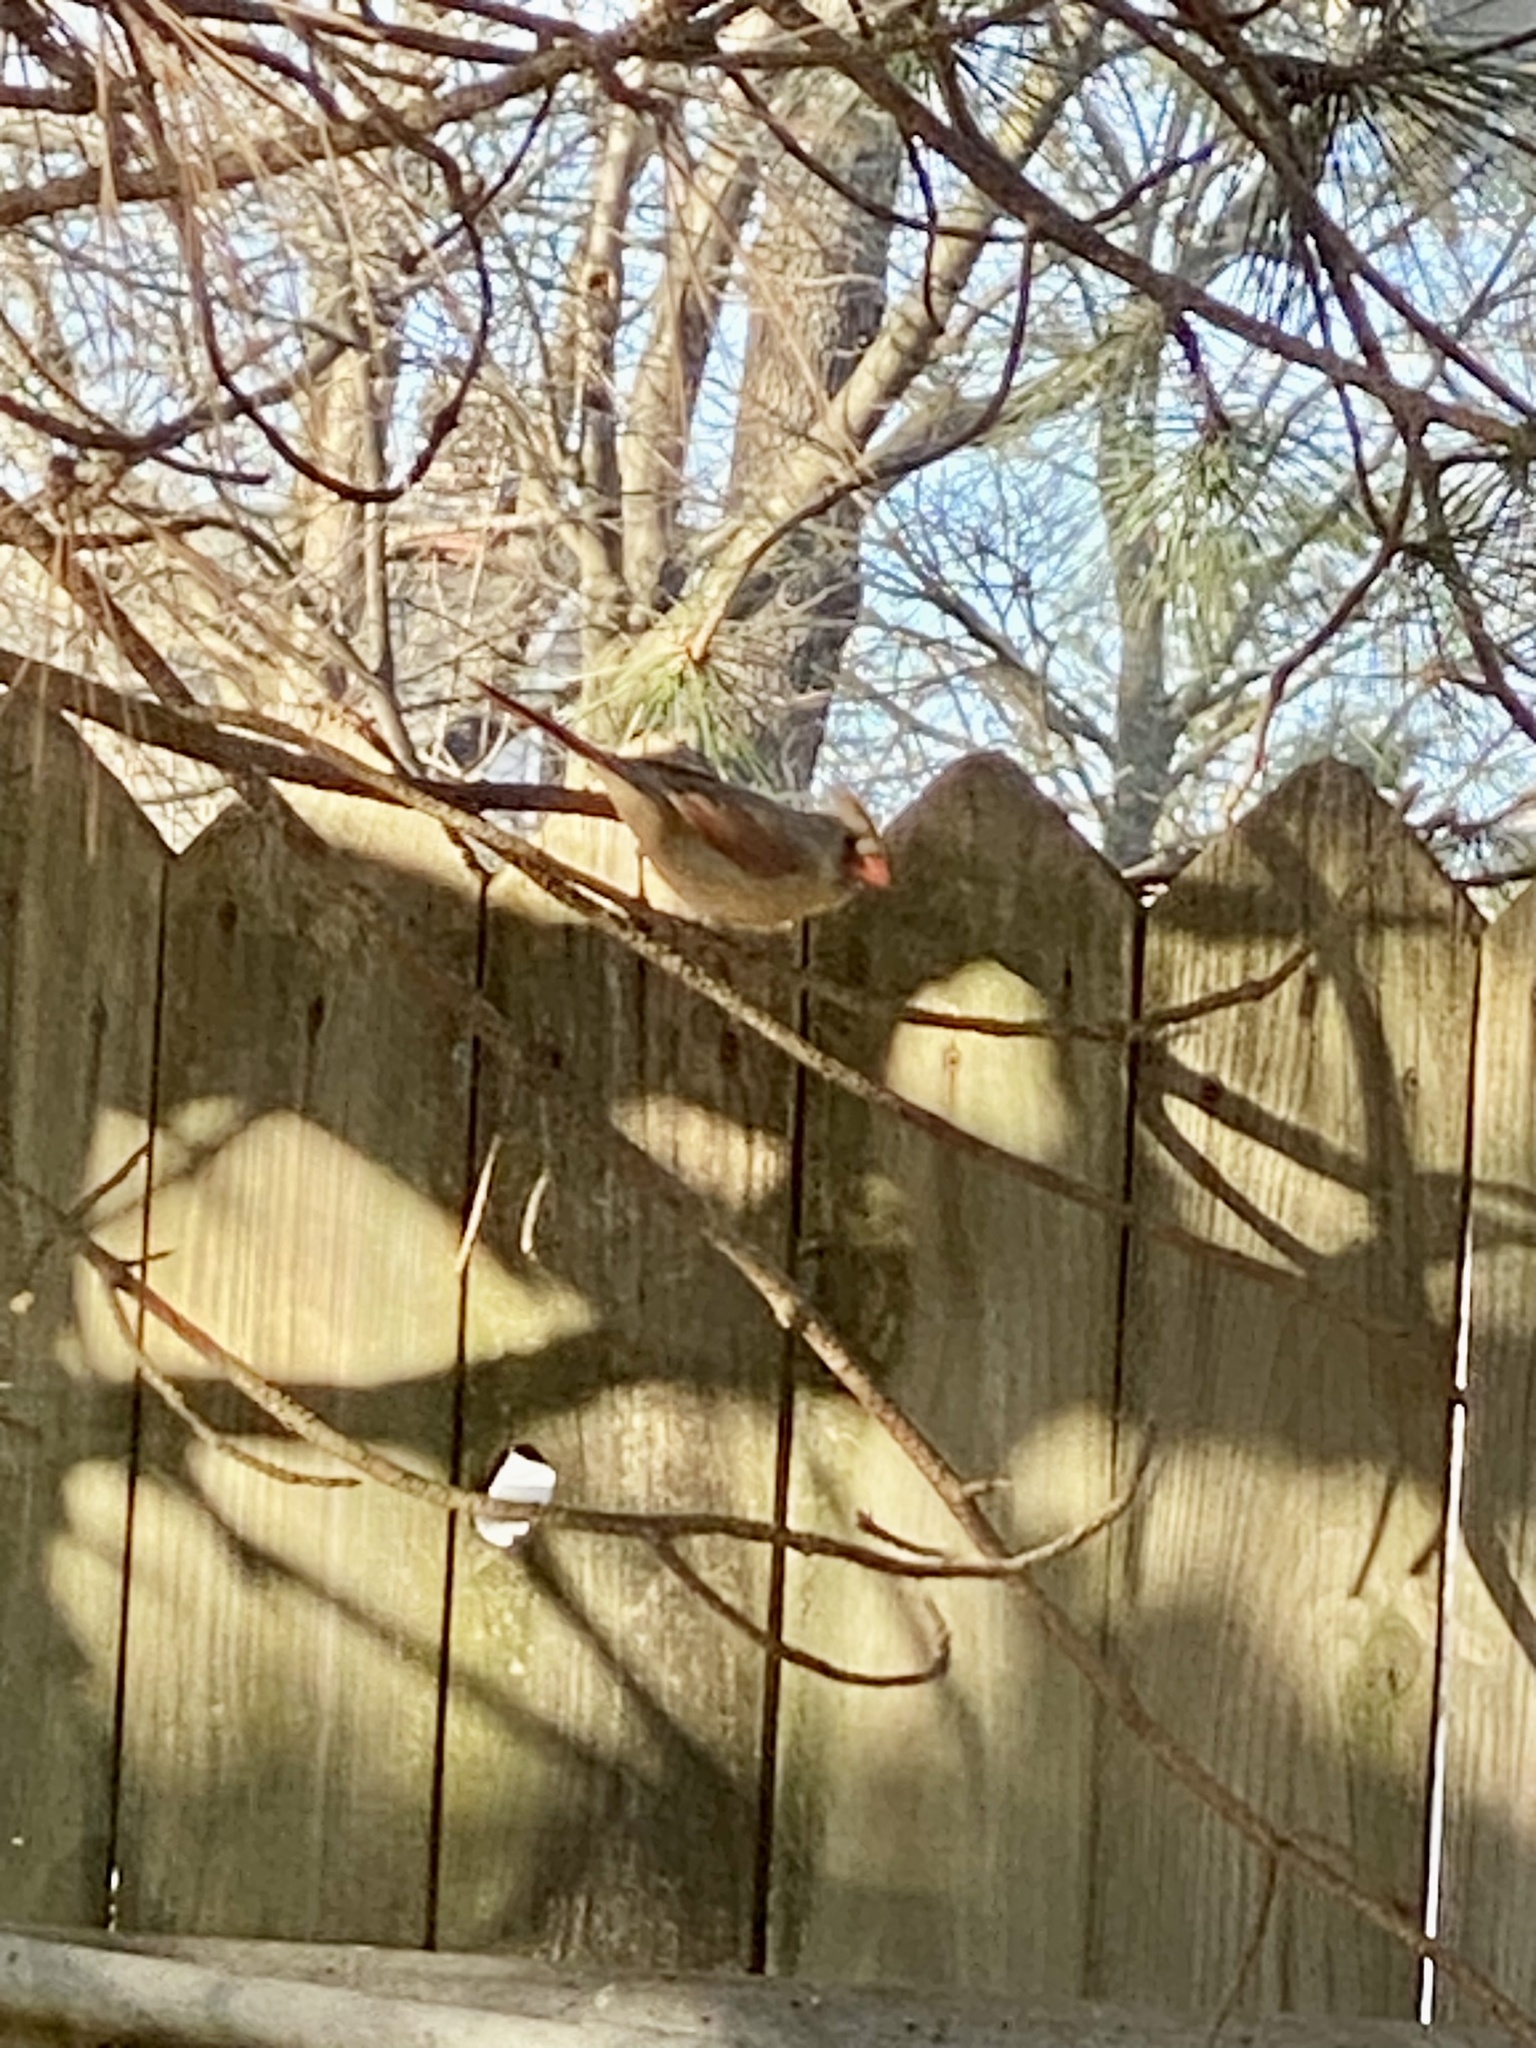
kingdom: Animalia
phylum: Chordata
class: Aves
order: Passeriformes
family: Cardinalidae
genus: Cardinalis
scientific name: Cardinalis cardinalis
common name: Northern cardinal
